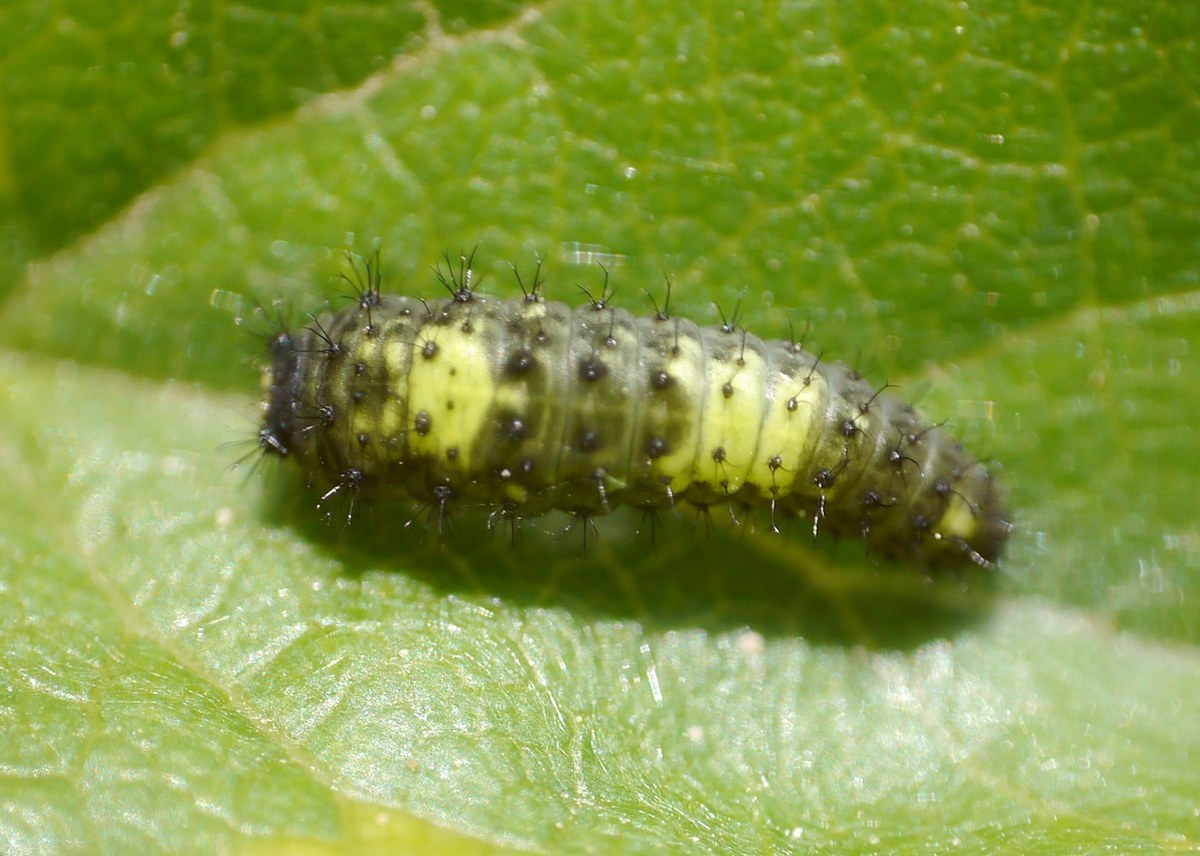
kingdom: Animalia
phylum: Arthropoda
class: Insecta
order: Lepidoptera
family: Papilionidae
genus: Iphiclides
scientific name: Iphiclides podalirius
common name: Scarce swallowtail
